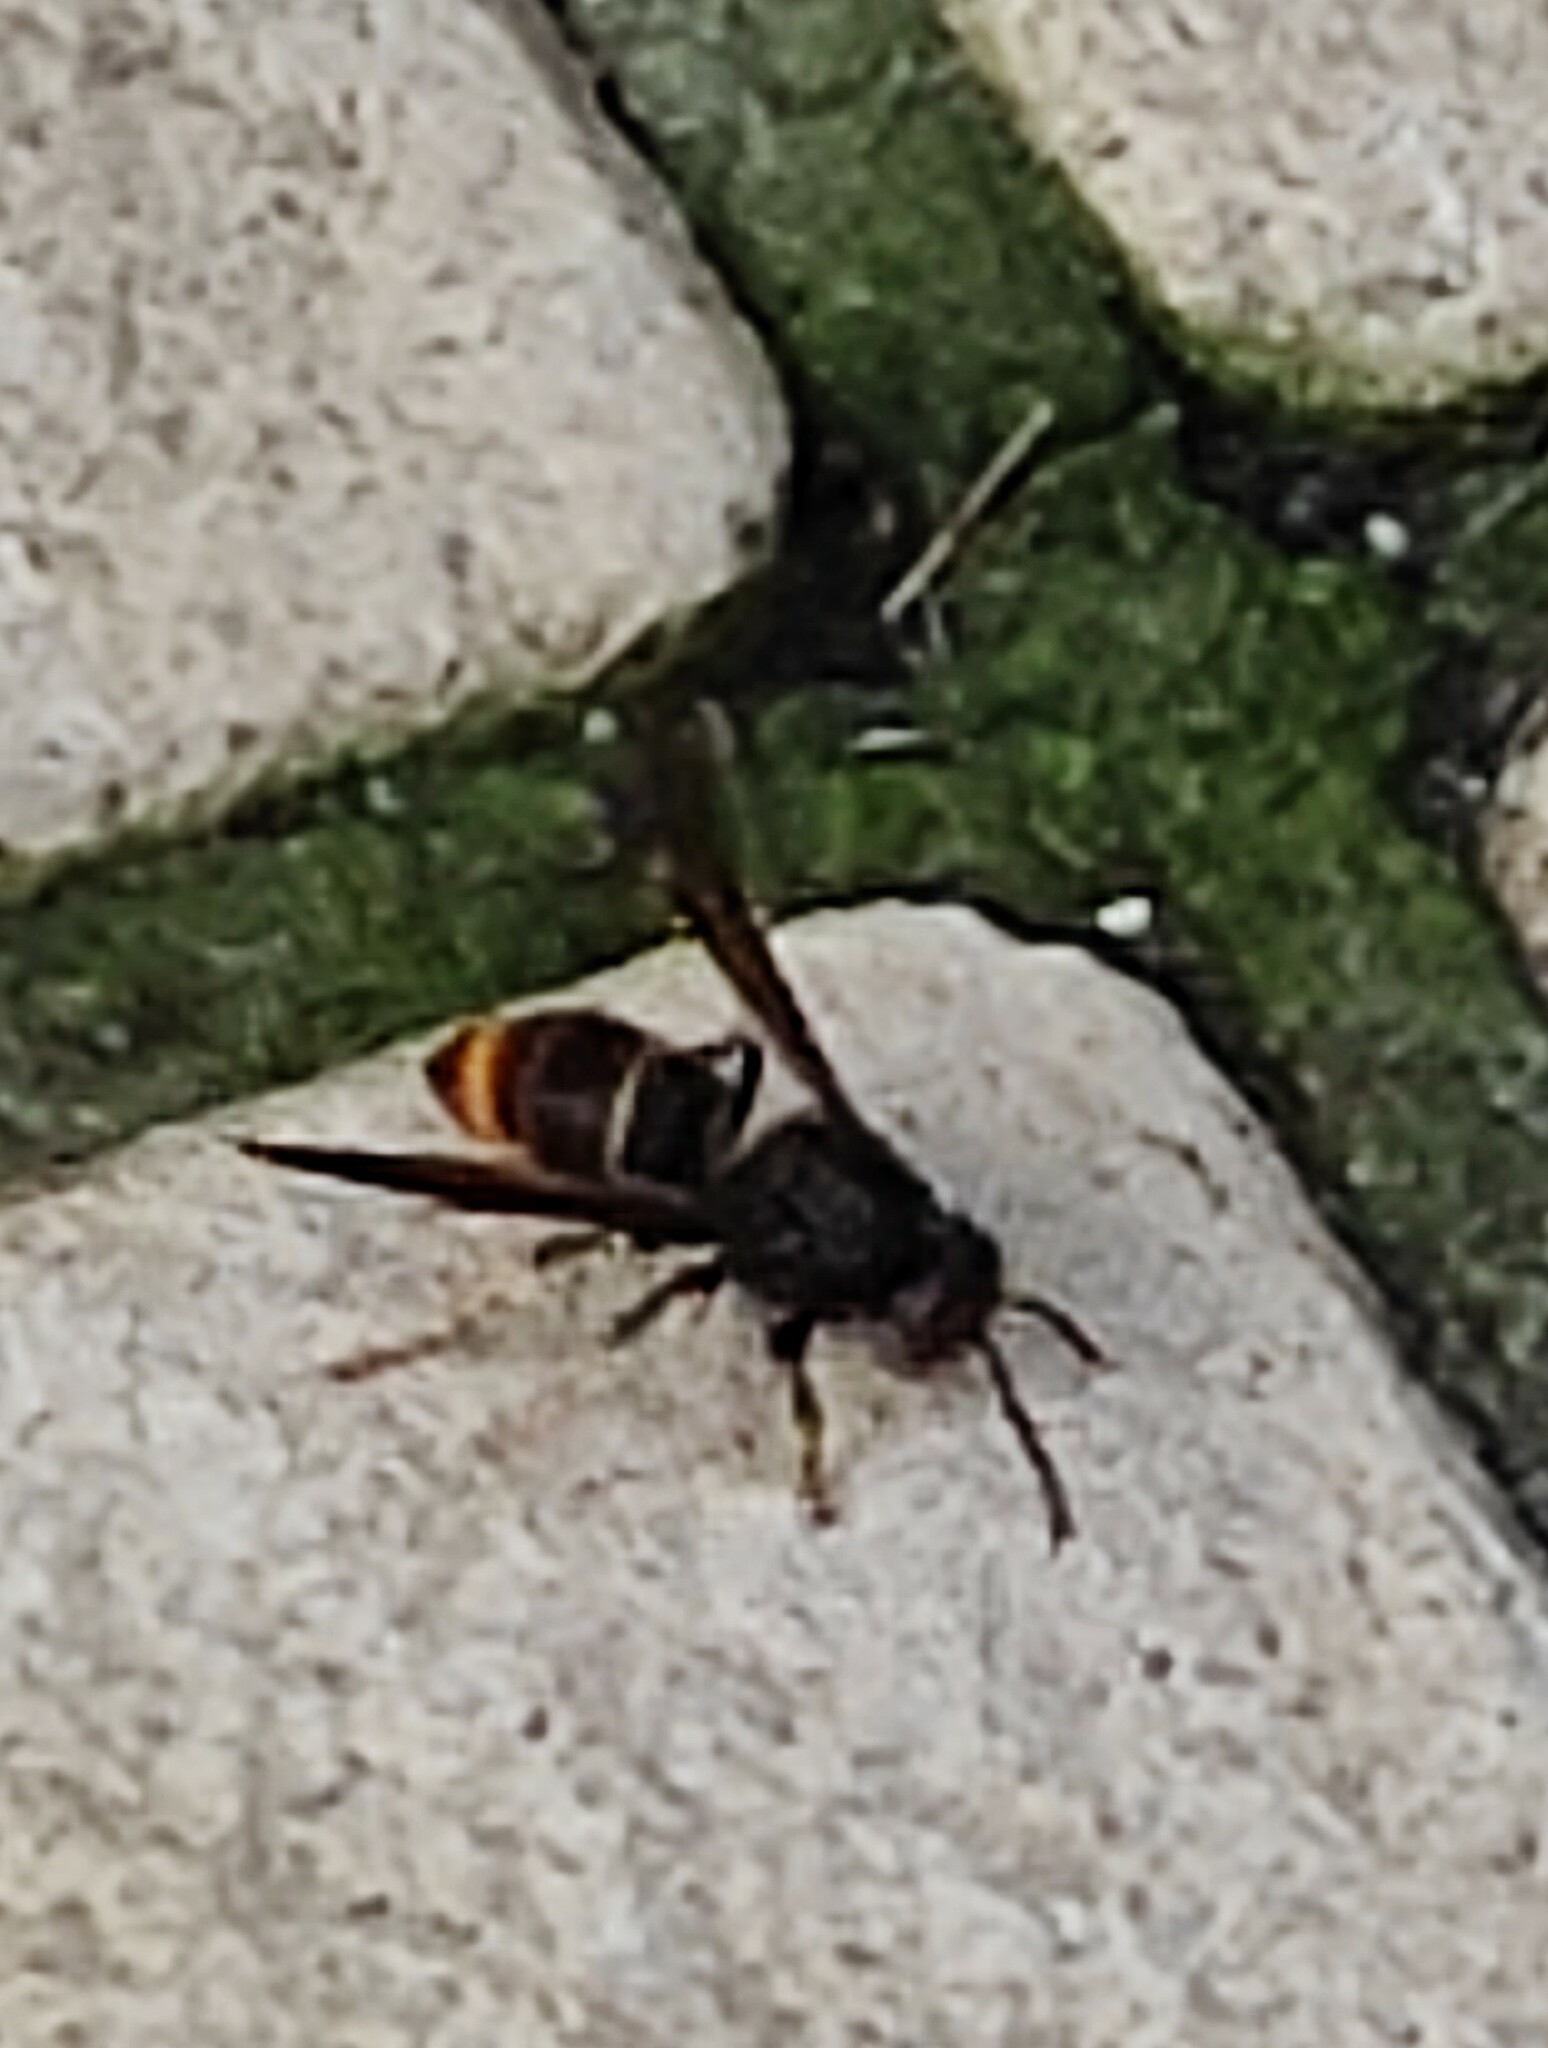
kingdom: Animalia
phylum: Arthropoda
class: Insecta
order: Hymenoptera
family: Vespidae
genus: Vespa
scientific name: Vespa velutina
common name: Asian hornet
